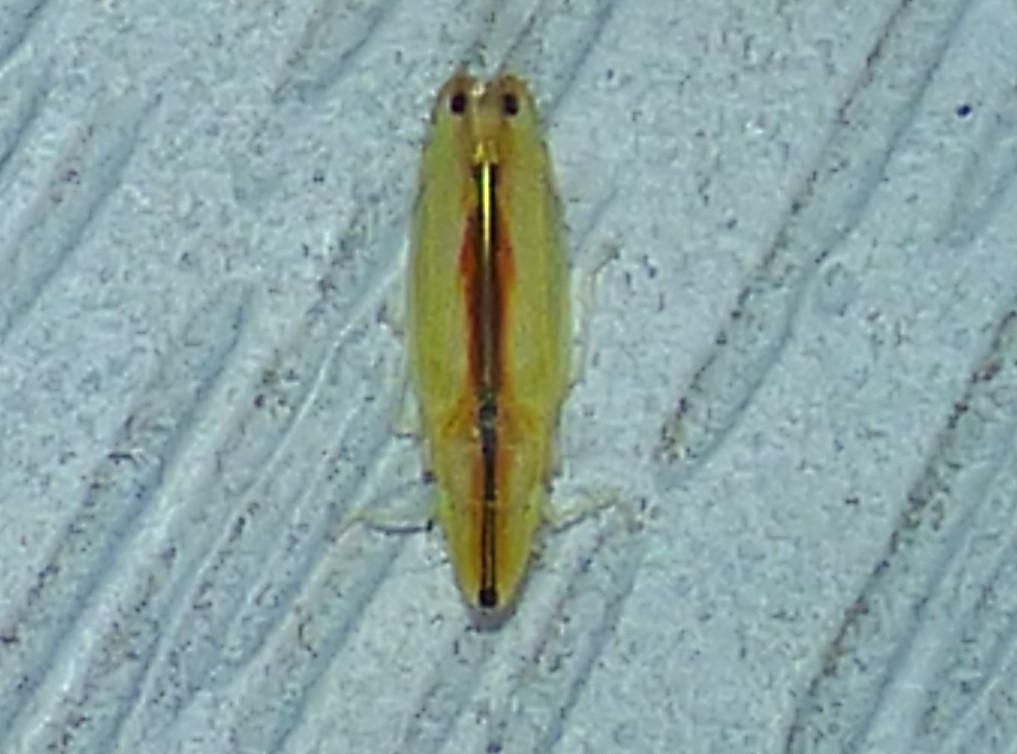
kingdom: Animalia
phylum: Arthropoda
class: Insecta
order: Hemiptera
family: Cicadellidae
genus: Sophonia
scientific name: Sophonia orientalis
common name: Two-spotted leafhopper
